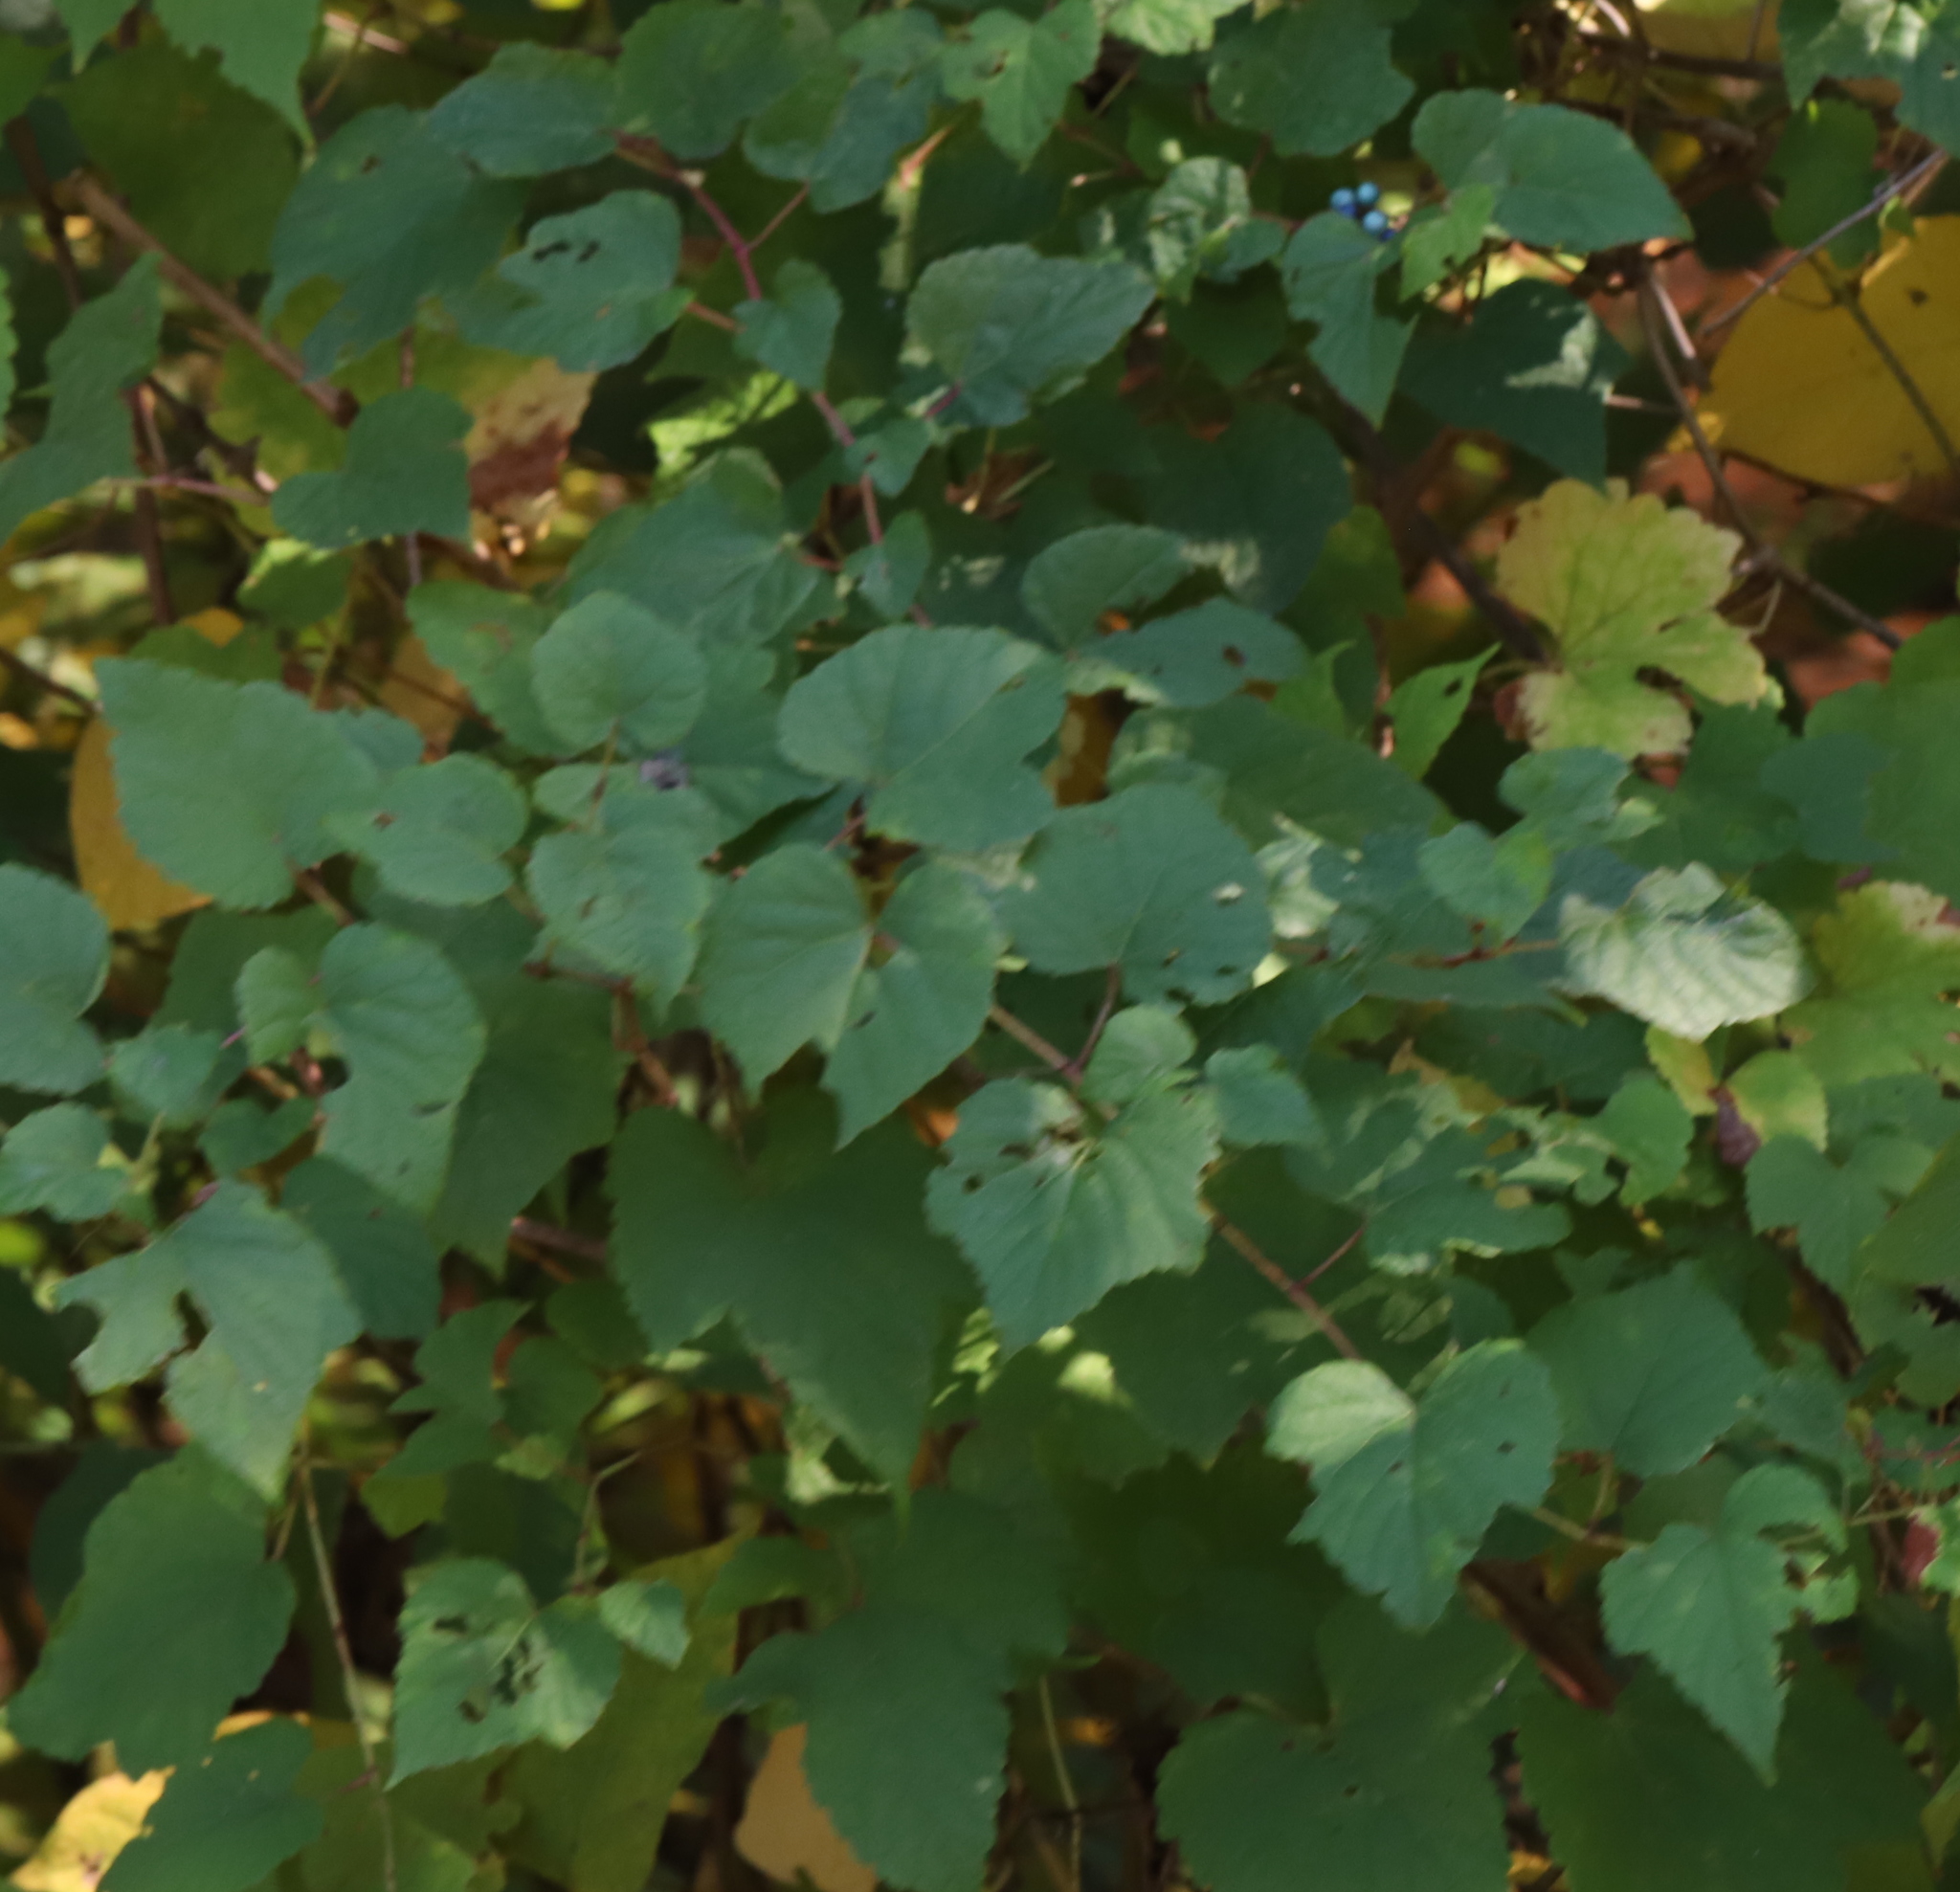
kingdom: Plantae
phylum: Tracheophyta
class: Magnoliopsida
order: Vitales
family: Vitaceae
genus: Ampelopsis
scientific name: Ampelopsis glandulosa
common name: Amur peppervine
